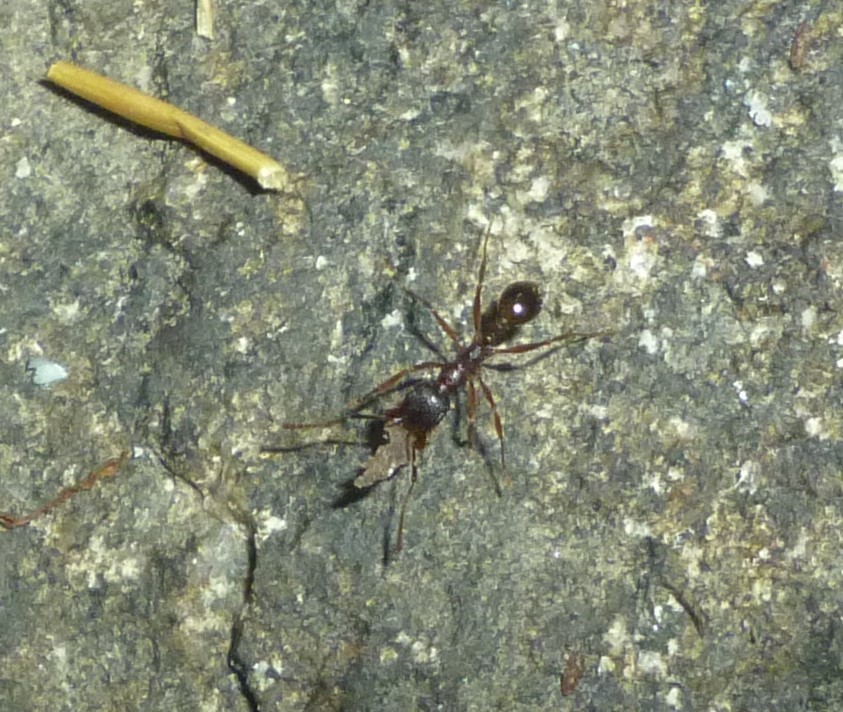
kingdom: Animalia
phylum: Arthropoda
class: Insecta
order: Hymenoptera
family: Formicidae
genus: Aphaenogaster
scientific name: Aphaenogaster rudis
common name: Winnow ant
